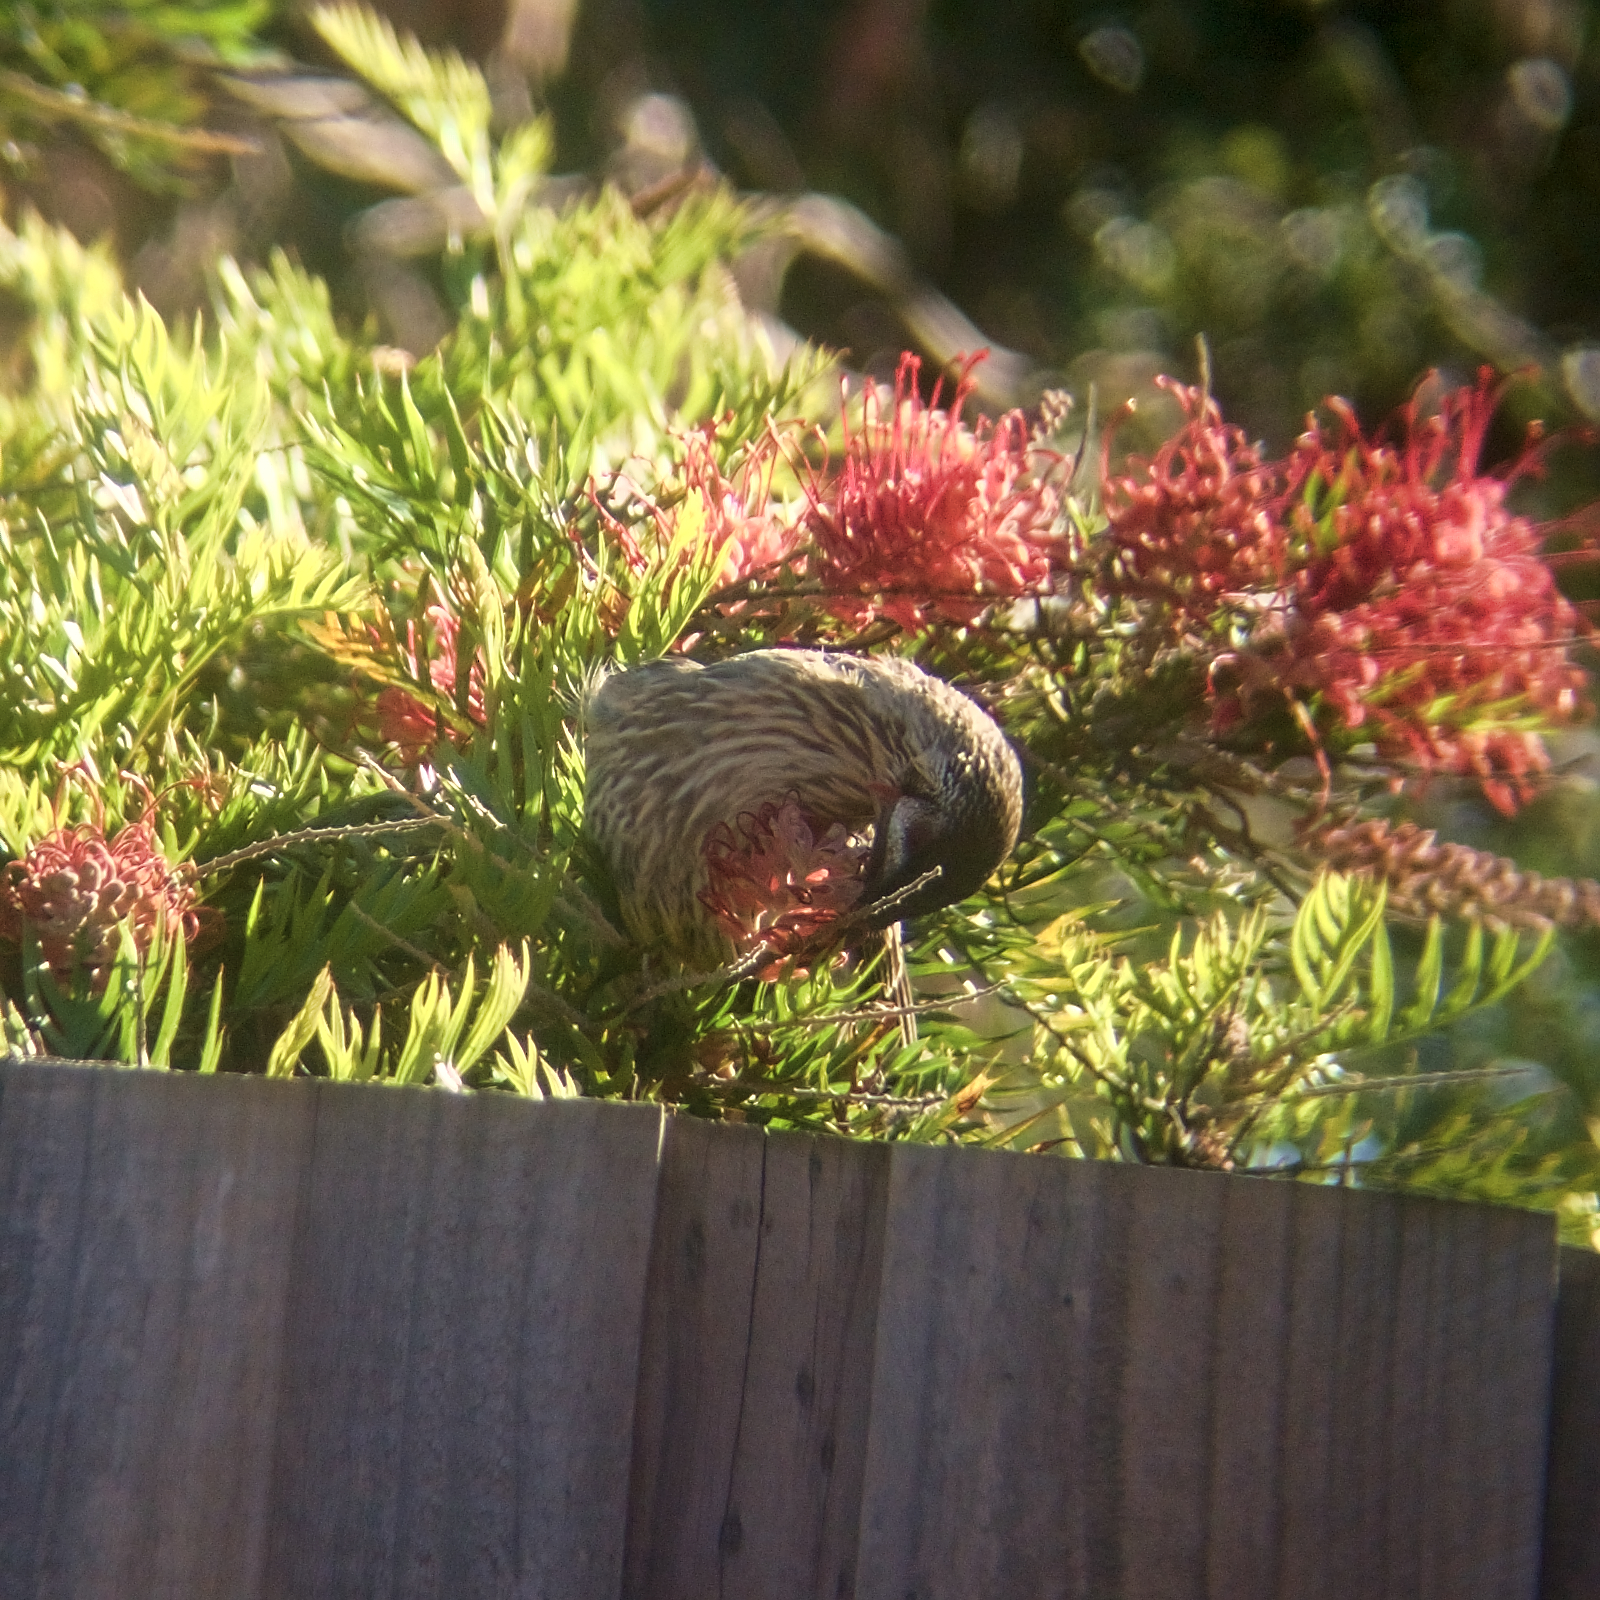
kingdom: Animalia
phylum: Chordata
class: Aves
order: Passeriformes
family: Meliphagidae
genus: Anthochaera
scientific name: Anthochaera carunculata
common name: Red wattlebird
